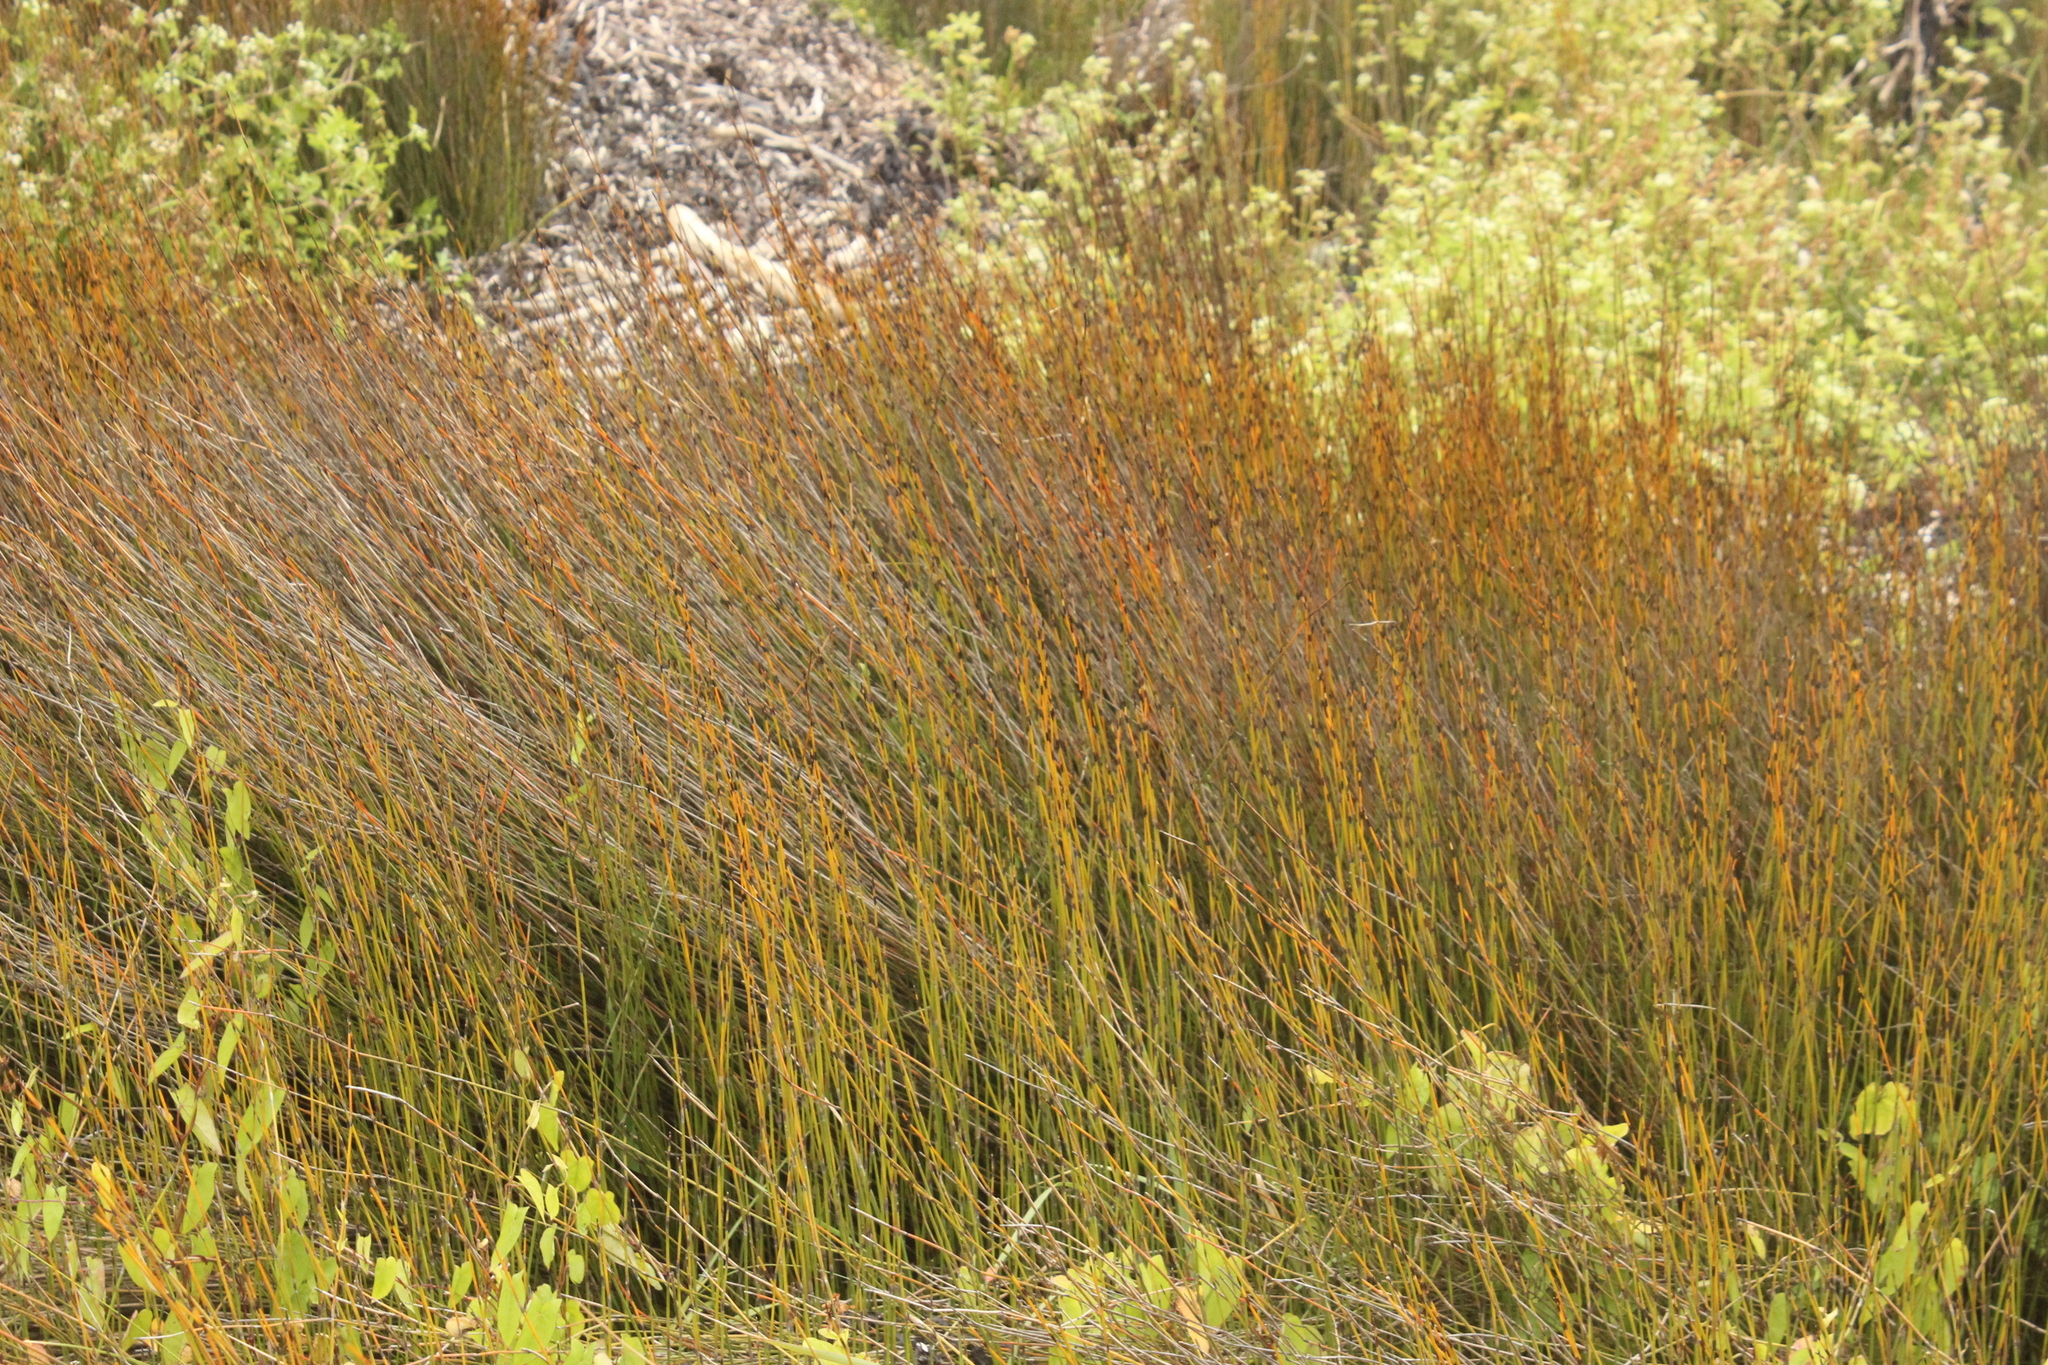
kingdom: Plantae
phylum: Tracheophyta
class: Liliopsida
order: Poales
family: Restionaceae
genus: Apodasmia
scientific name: Apodasmia similis
